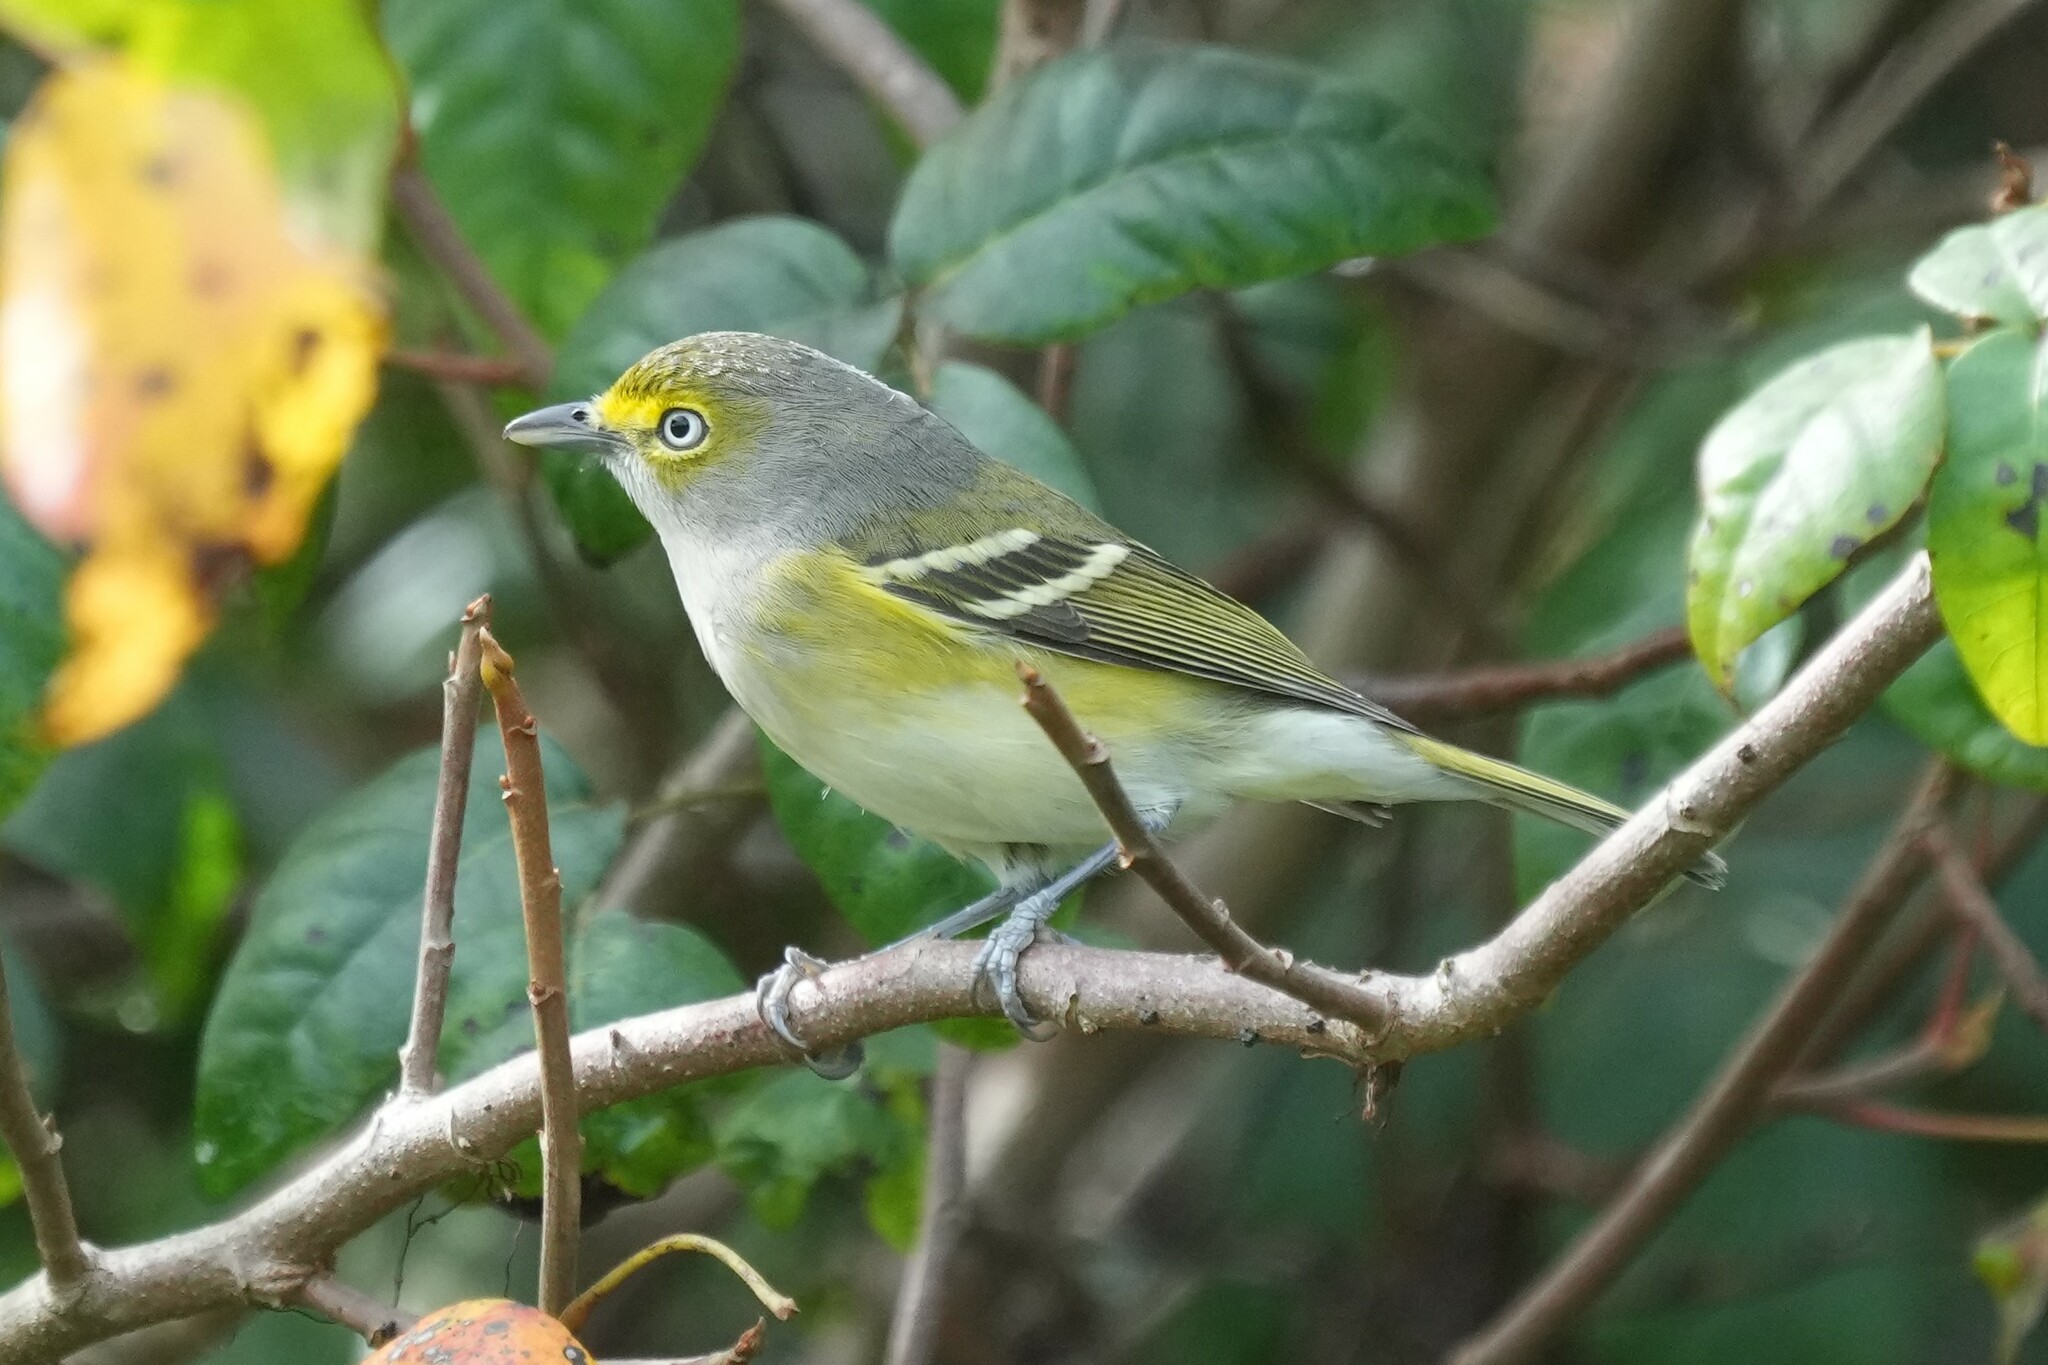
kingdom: Animalia
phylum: Chordata
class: Aves
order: Passeriformes
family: Vireonidae
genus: Vireo
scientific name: Vireo griseus
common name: White-eyed vireo
